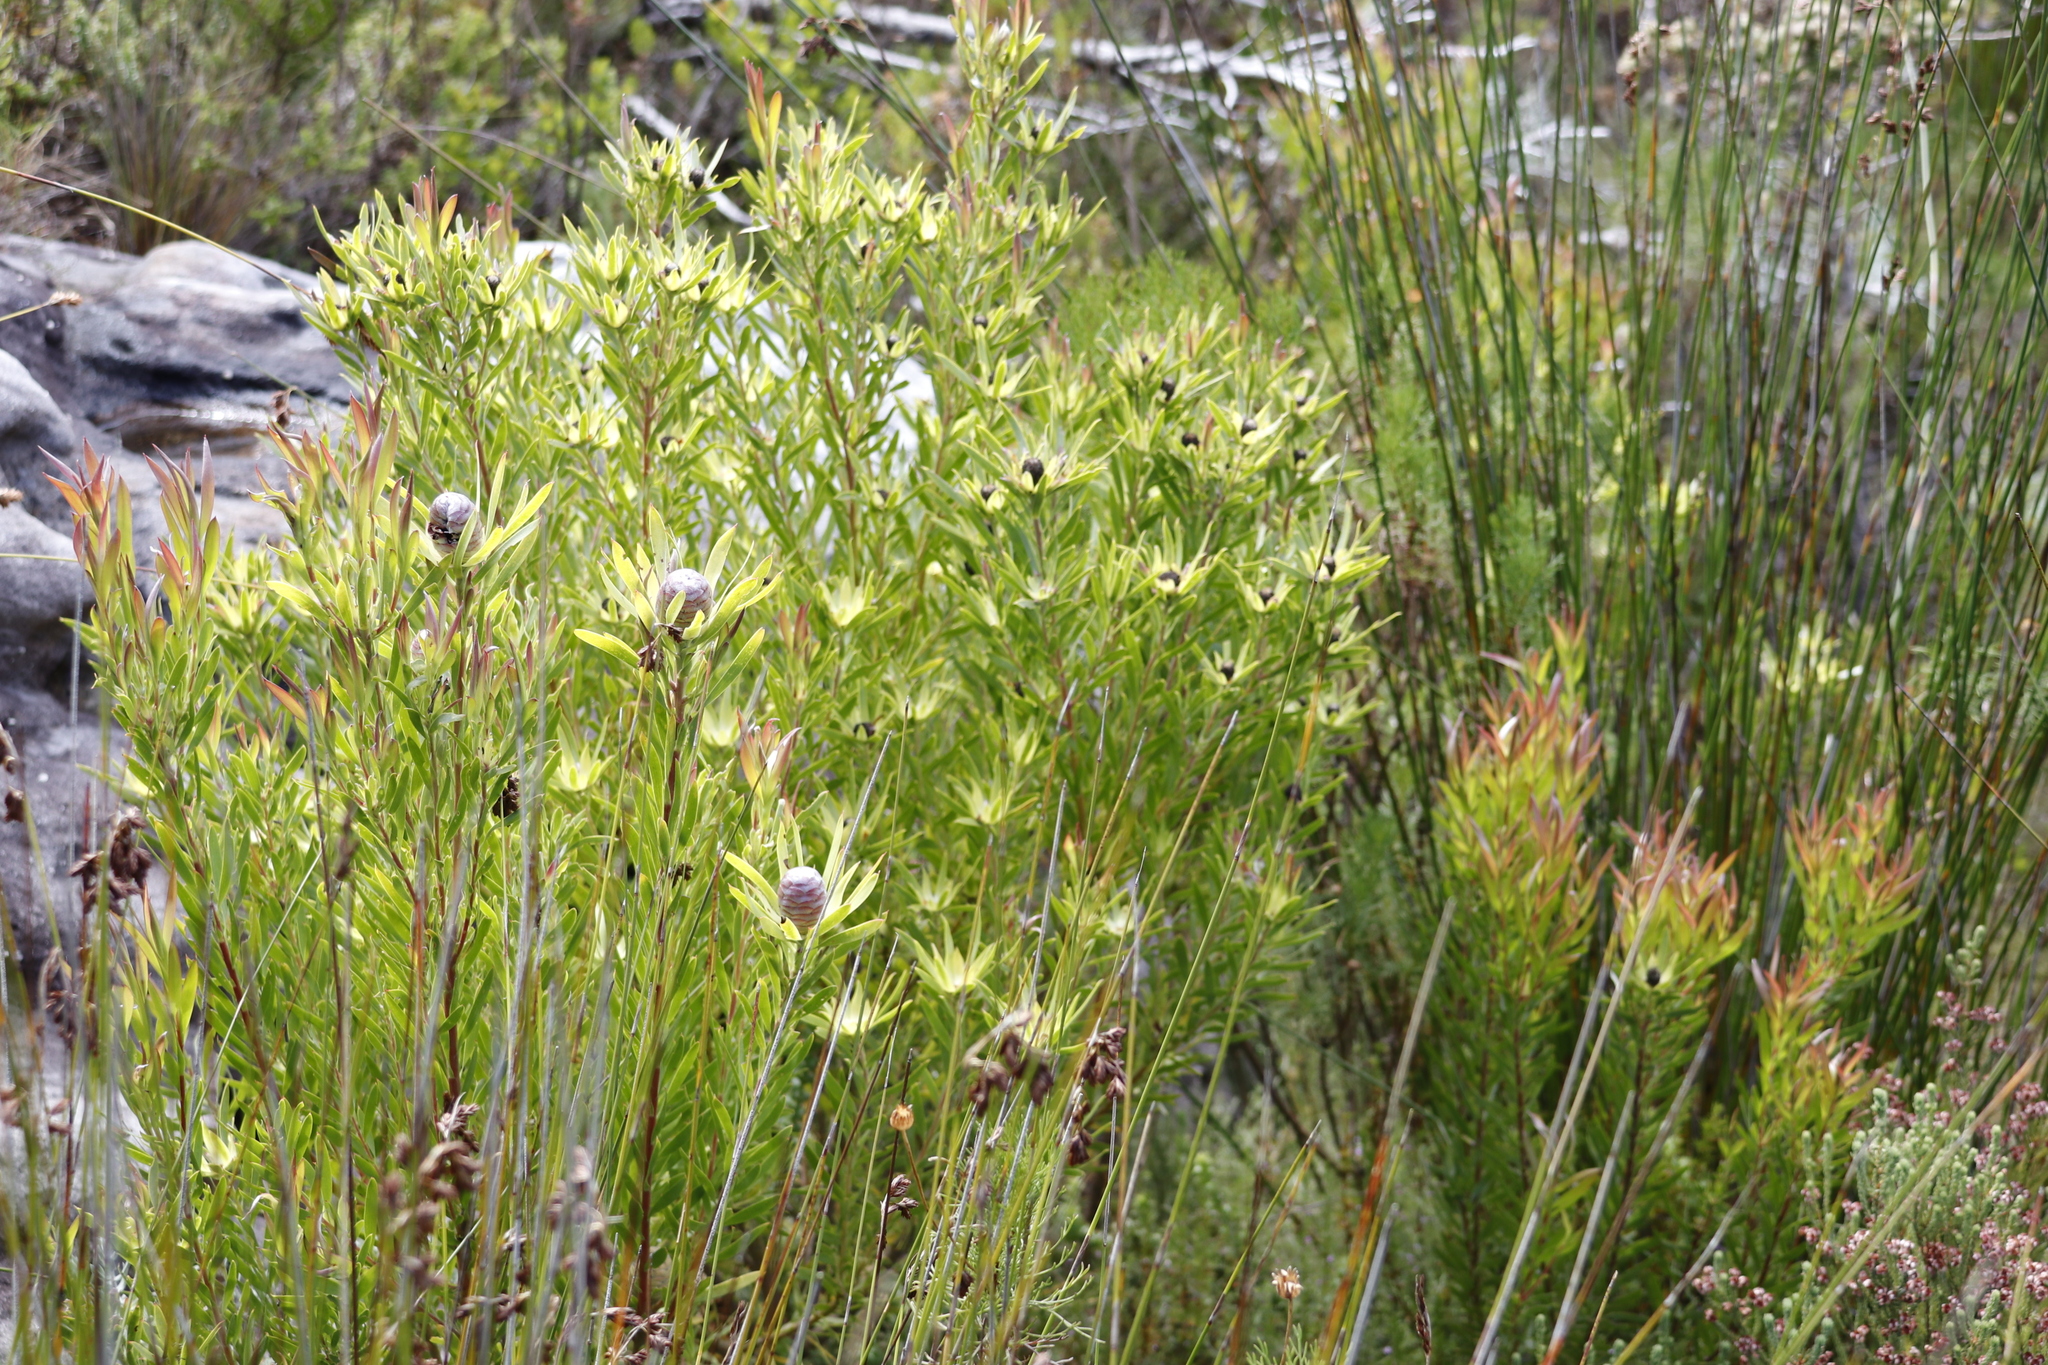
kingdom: Plantae
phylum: Tracheophyta
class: Magnoliopsida
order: Proteales
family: Proteaceae
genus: Leucadendron
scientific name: Leucadendron xanthoconus
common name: Sickle-leaf conebush
